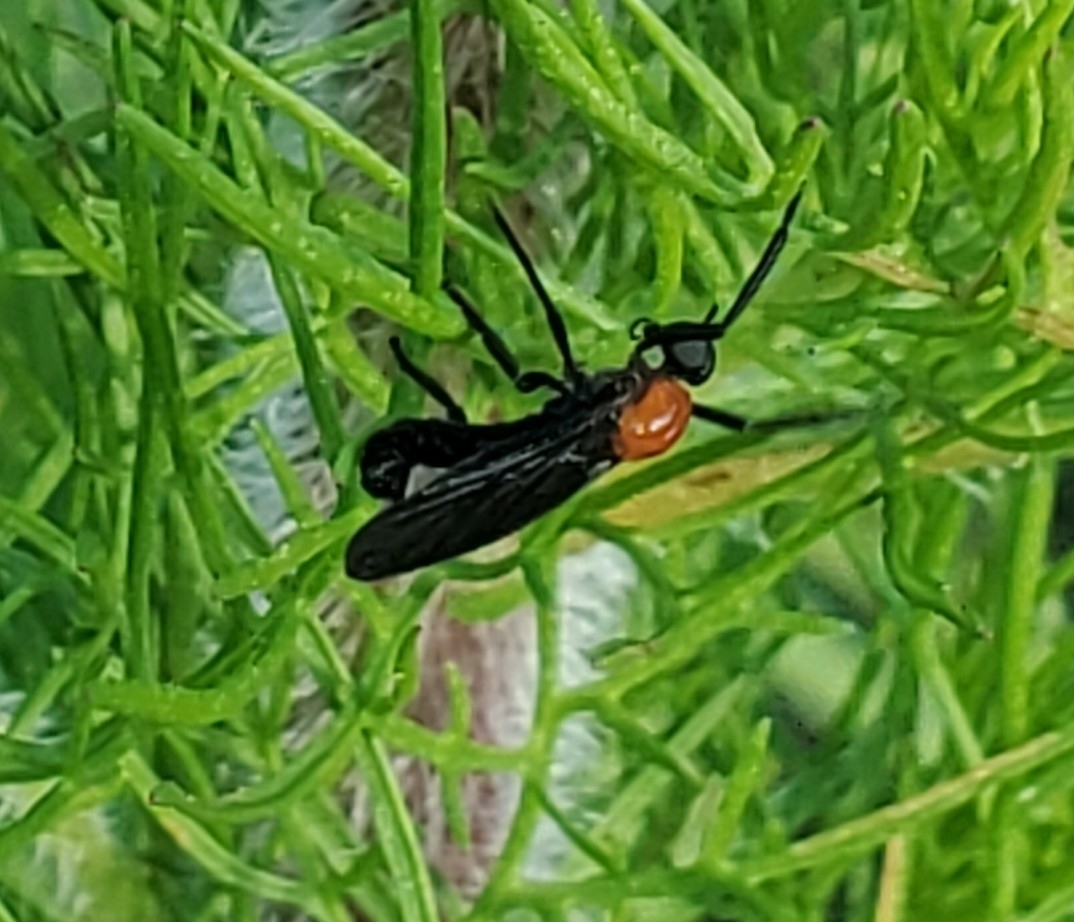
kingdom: Animalia
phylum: Arthropoda
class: Insecta
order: Diptera
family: Bibionidae
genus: Plecia
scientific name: Plecia nearctica
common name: March fly
